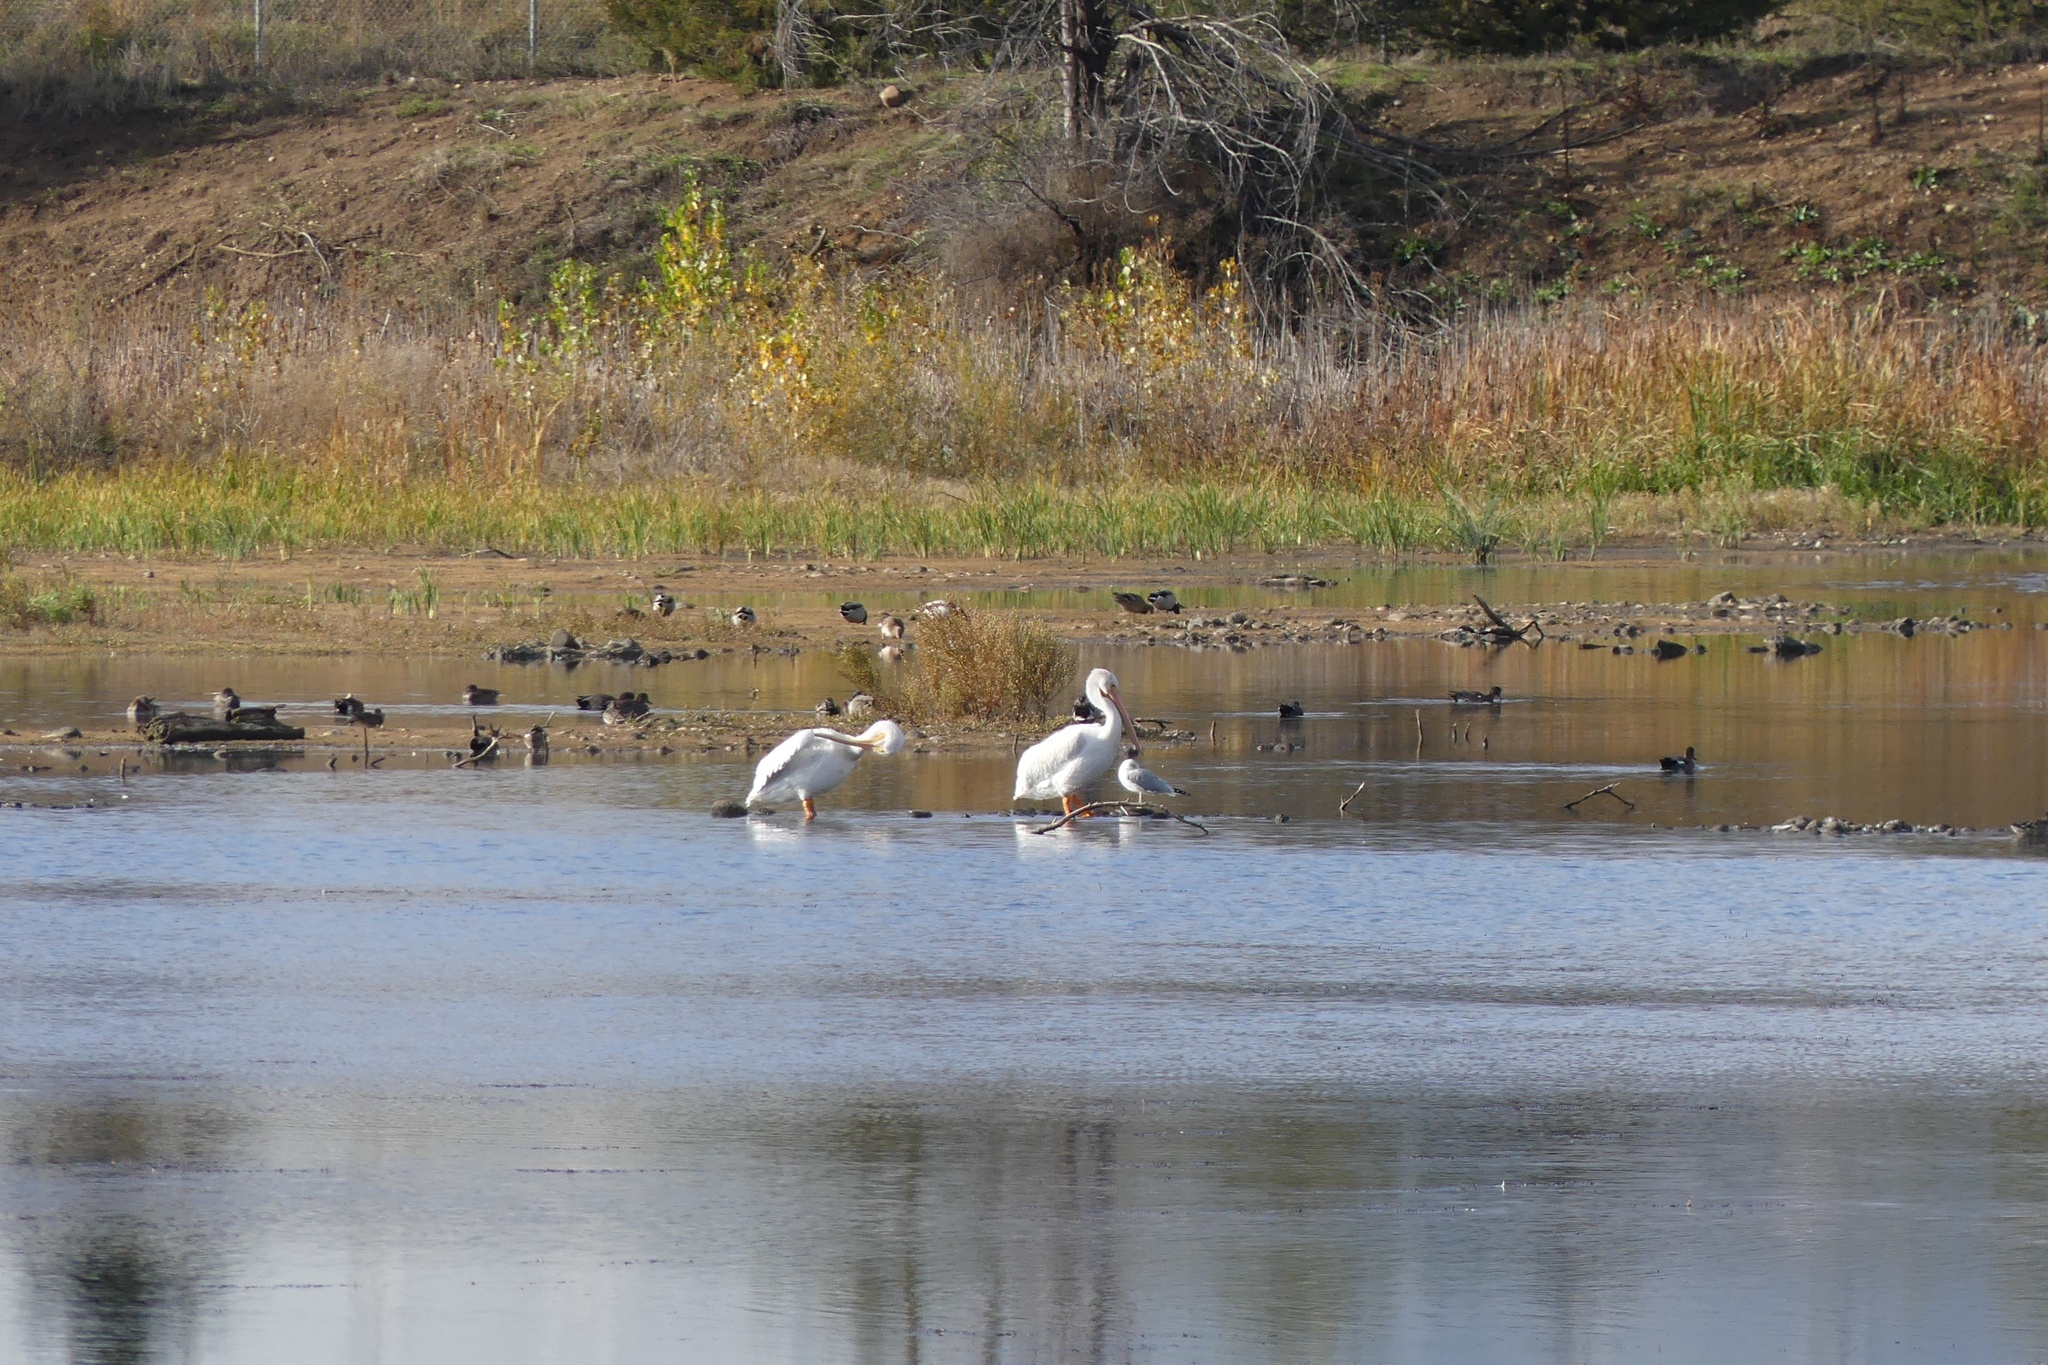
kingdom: Animalia
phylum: Chordata
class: Aves
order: Pelecaniformes
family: Pelecanidae
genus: Pelecanus
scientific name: Pelecanus erythrorhynchos
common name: American white pelican
